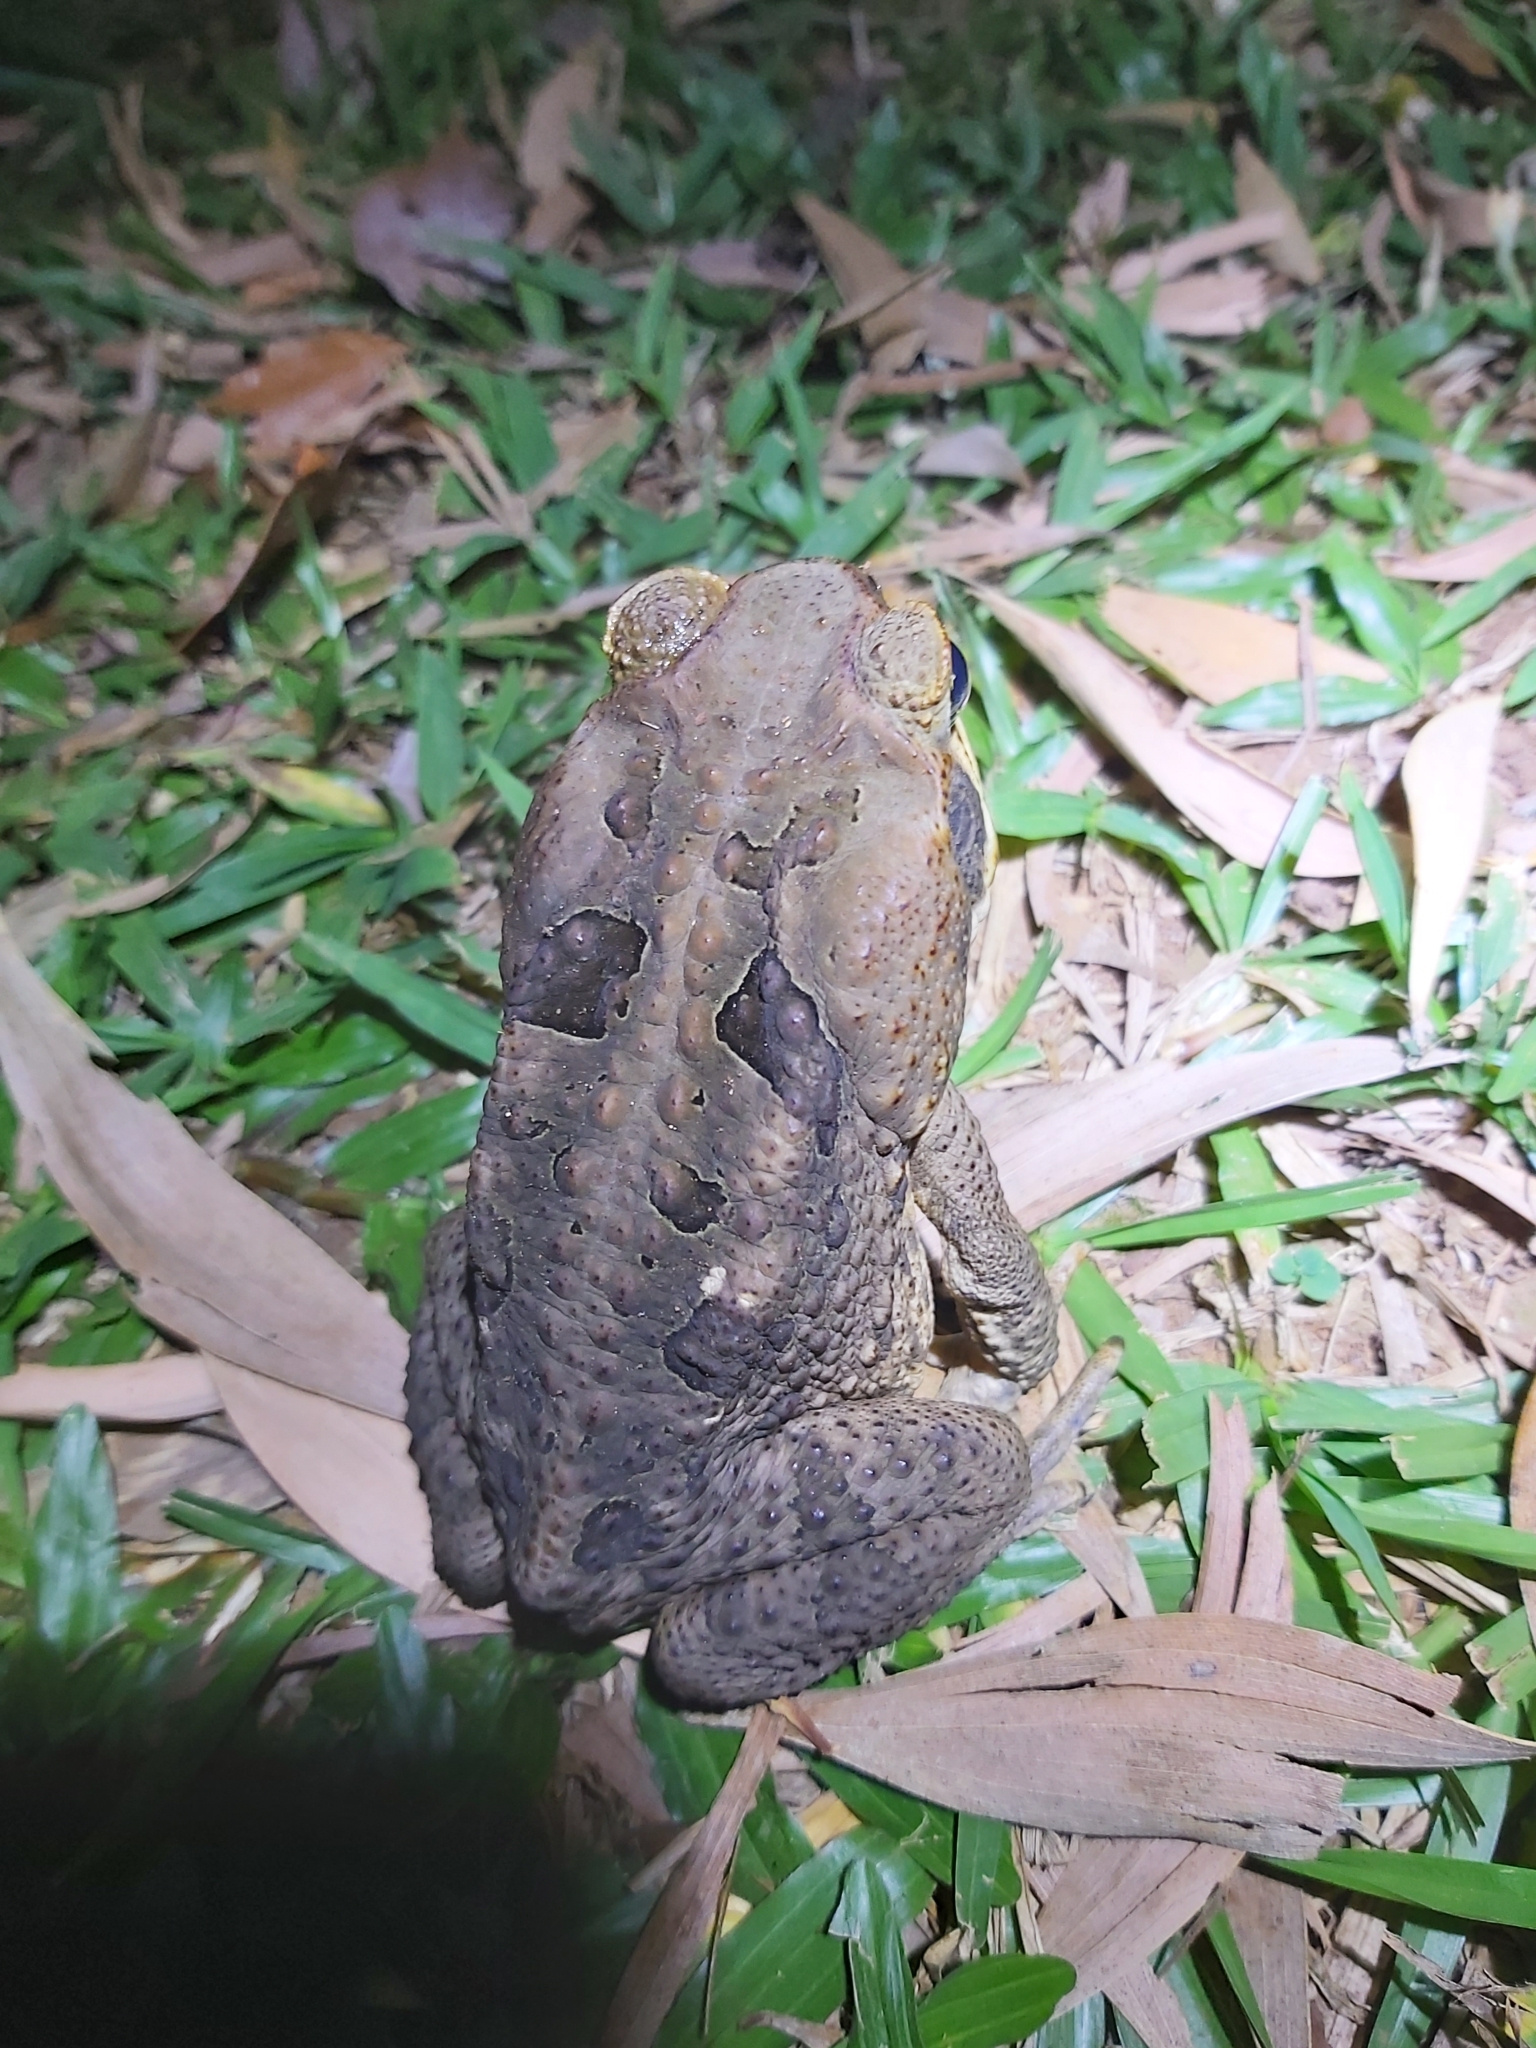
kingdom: Animalia
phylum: Chordata
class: Amphibia
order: Anura
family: Bufonidae
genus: Rhinella
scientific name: Rhinella marina
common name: Cane toad
